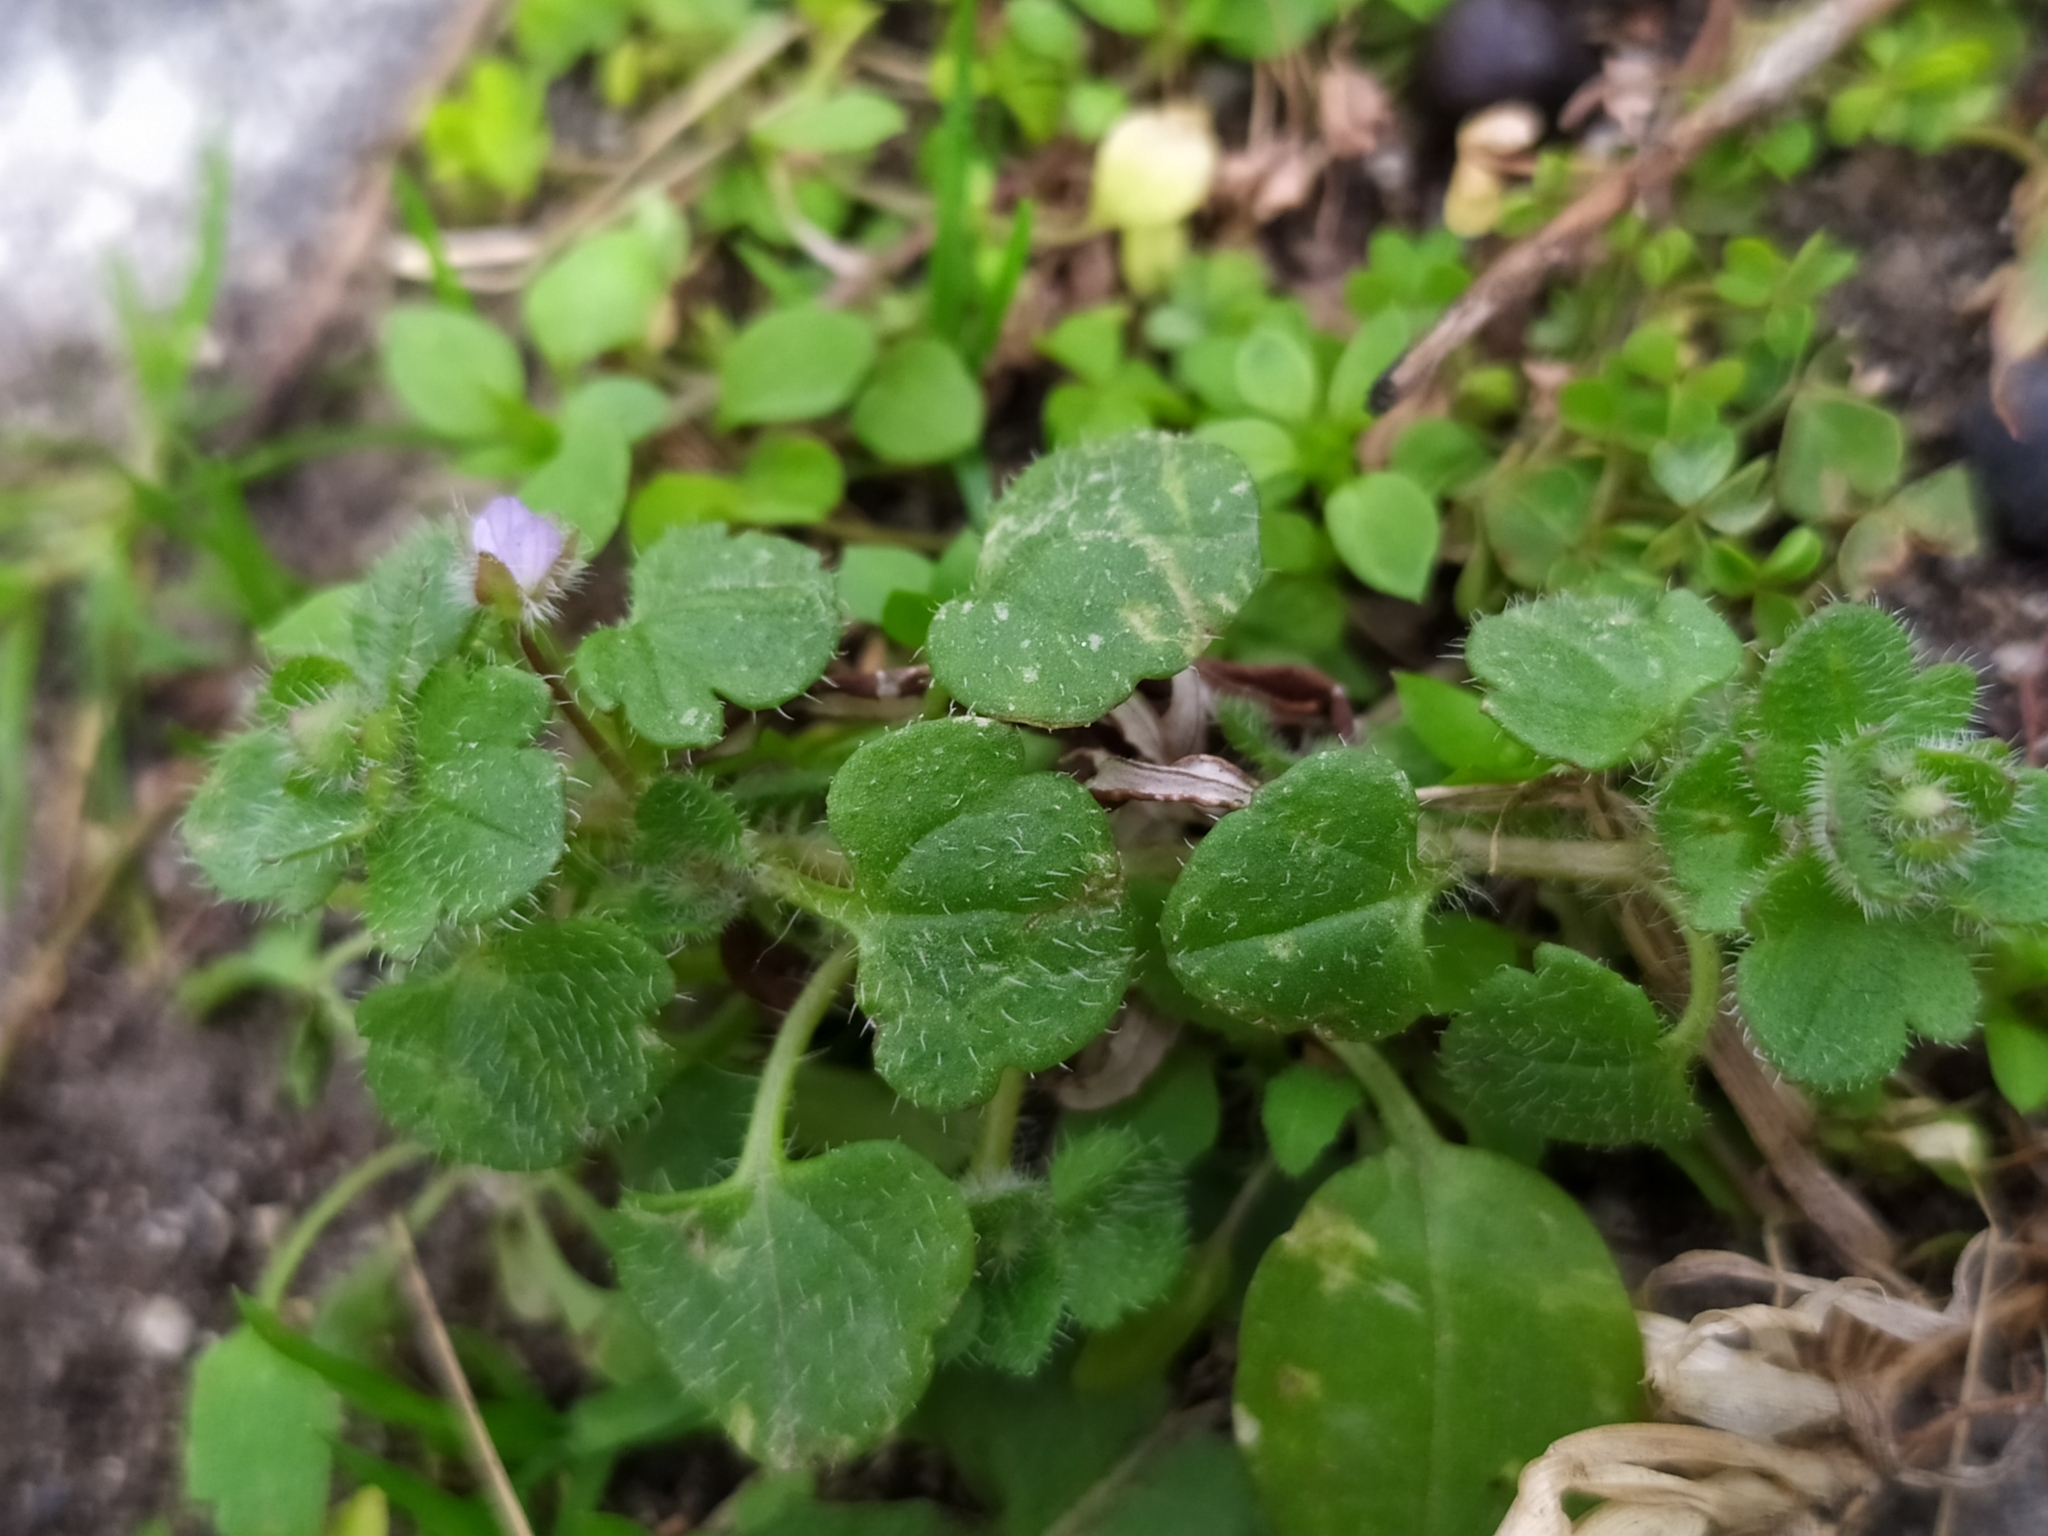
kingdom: Plantae
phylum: Tracheophyta
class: Magnoliopsida
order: Lamiales
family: Plantaginaceae
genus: Veronica
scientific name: Veronica sublobata
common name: False ivy-leaved speedwell
